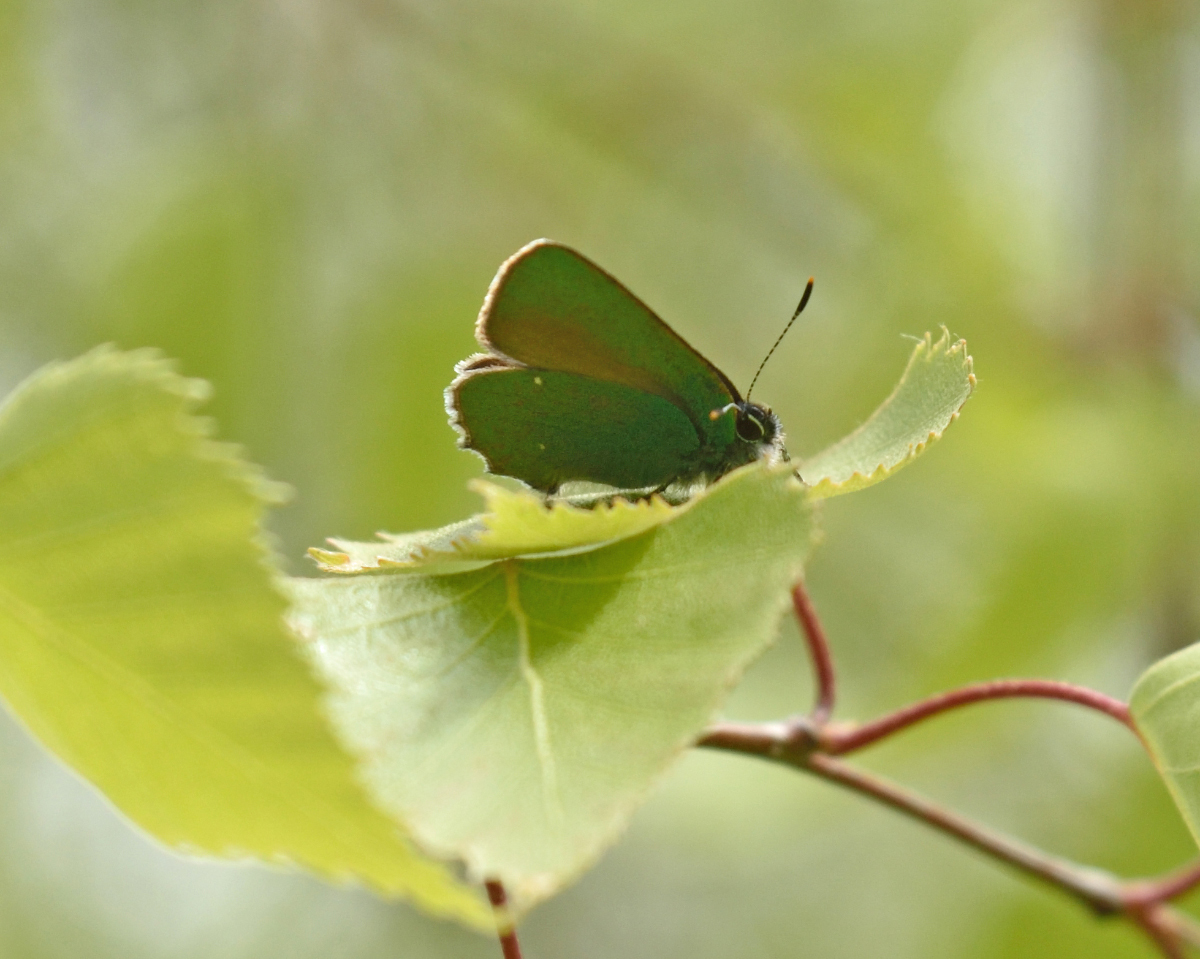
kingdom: Animalia
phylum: Arthropoda
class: Insecta
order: Lepidoptera
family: Lycaenidae
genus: Callophrys
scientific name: Callophrys rubi
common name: Green hairstreak
